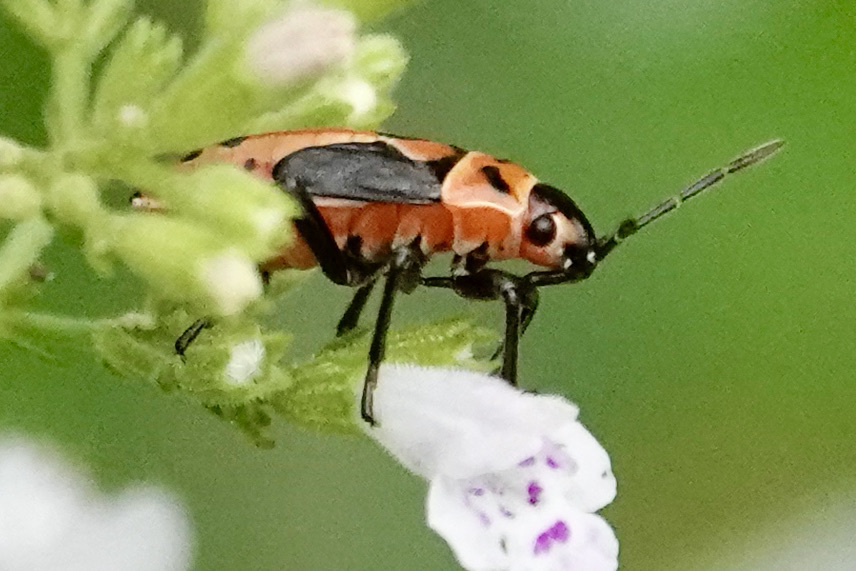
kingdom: Animalia
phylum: Arthropoda
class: Insecta
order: Hemiptera
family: Lygaeidae
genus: Lygaeus
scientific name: Lygaeus kalmii
